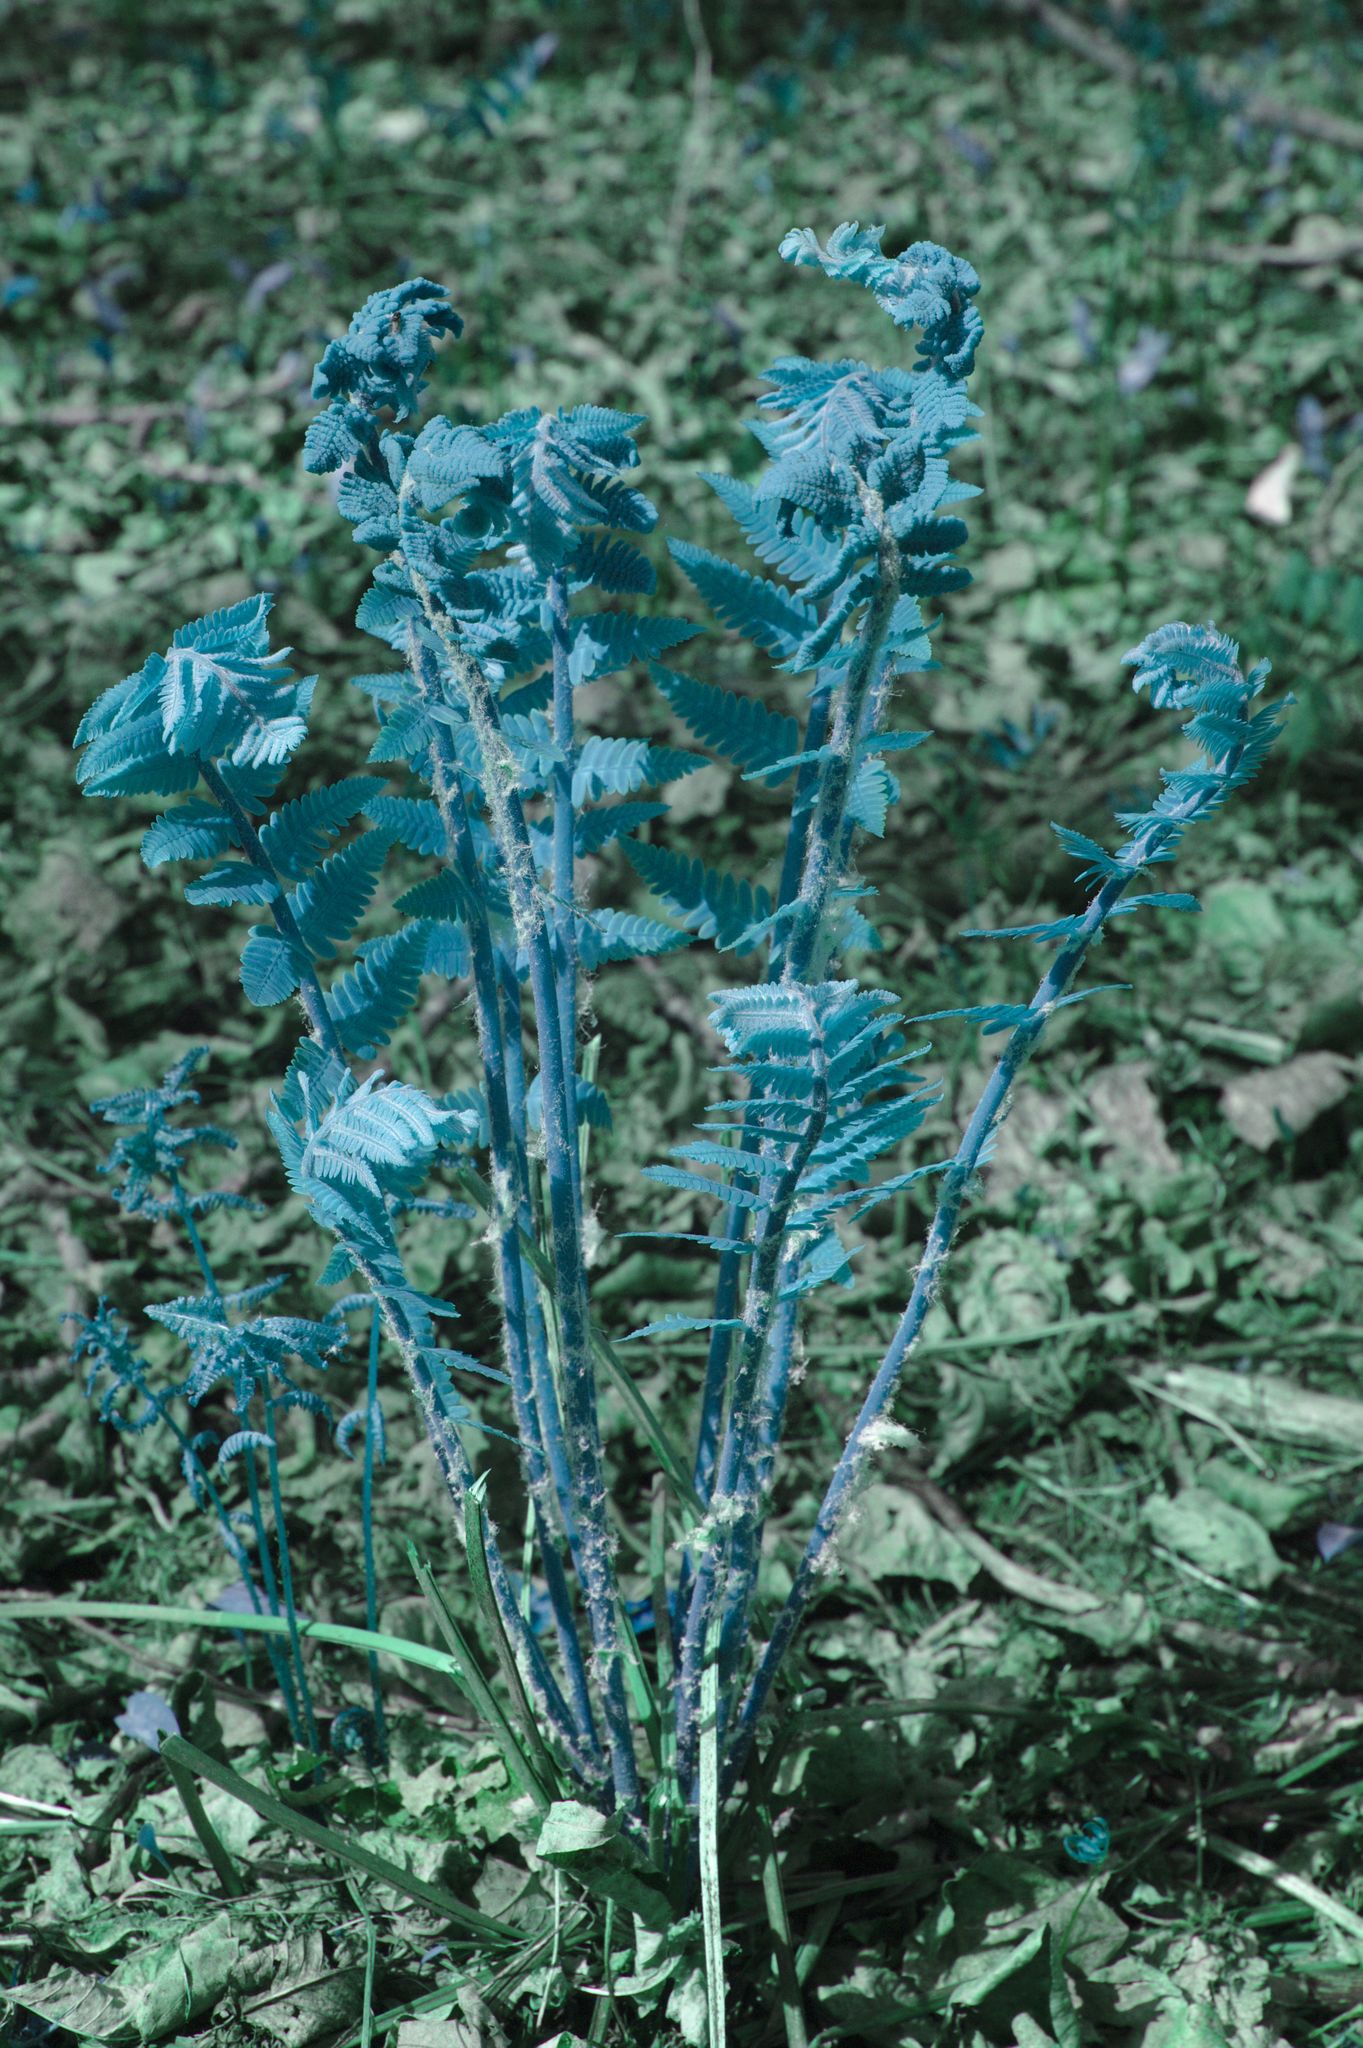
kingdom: Plantae
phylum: Tracheophyta
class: Polypodiopsida
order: Osmundales
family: Osmundaceae
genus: Claytosmunda
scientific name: Claytosmunda claytoniana
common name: Clayton's fern
